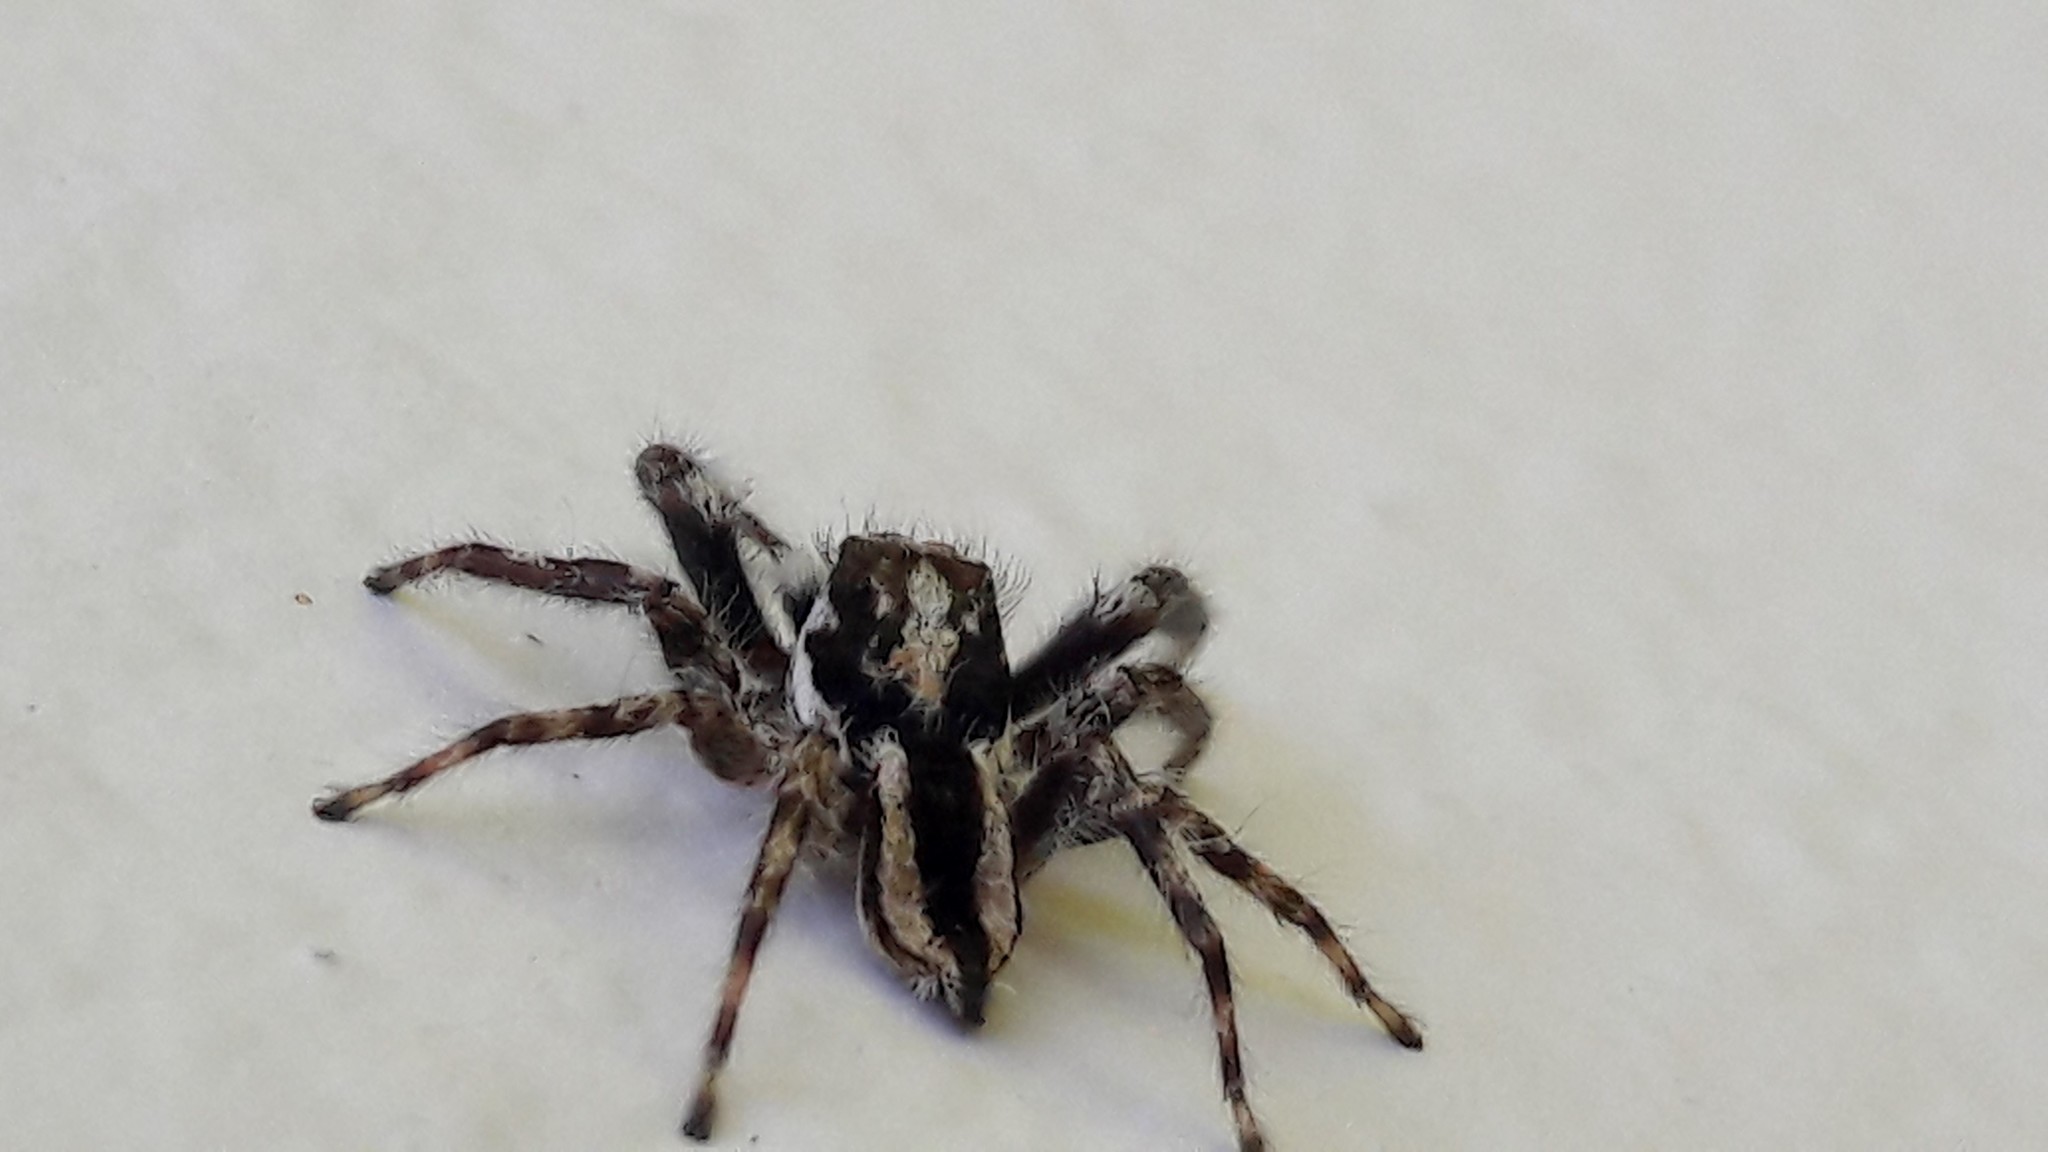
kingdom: Animalia
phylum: Arthropoda
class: Arachnida
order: Araneae
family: Salticidae
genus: Menemerus
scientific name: Menemerus bivittatus
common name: Gray wall jumper
